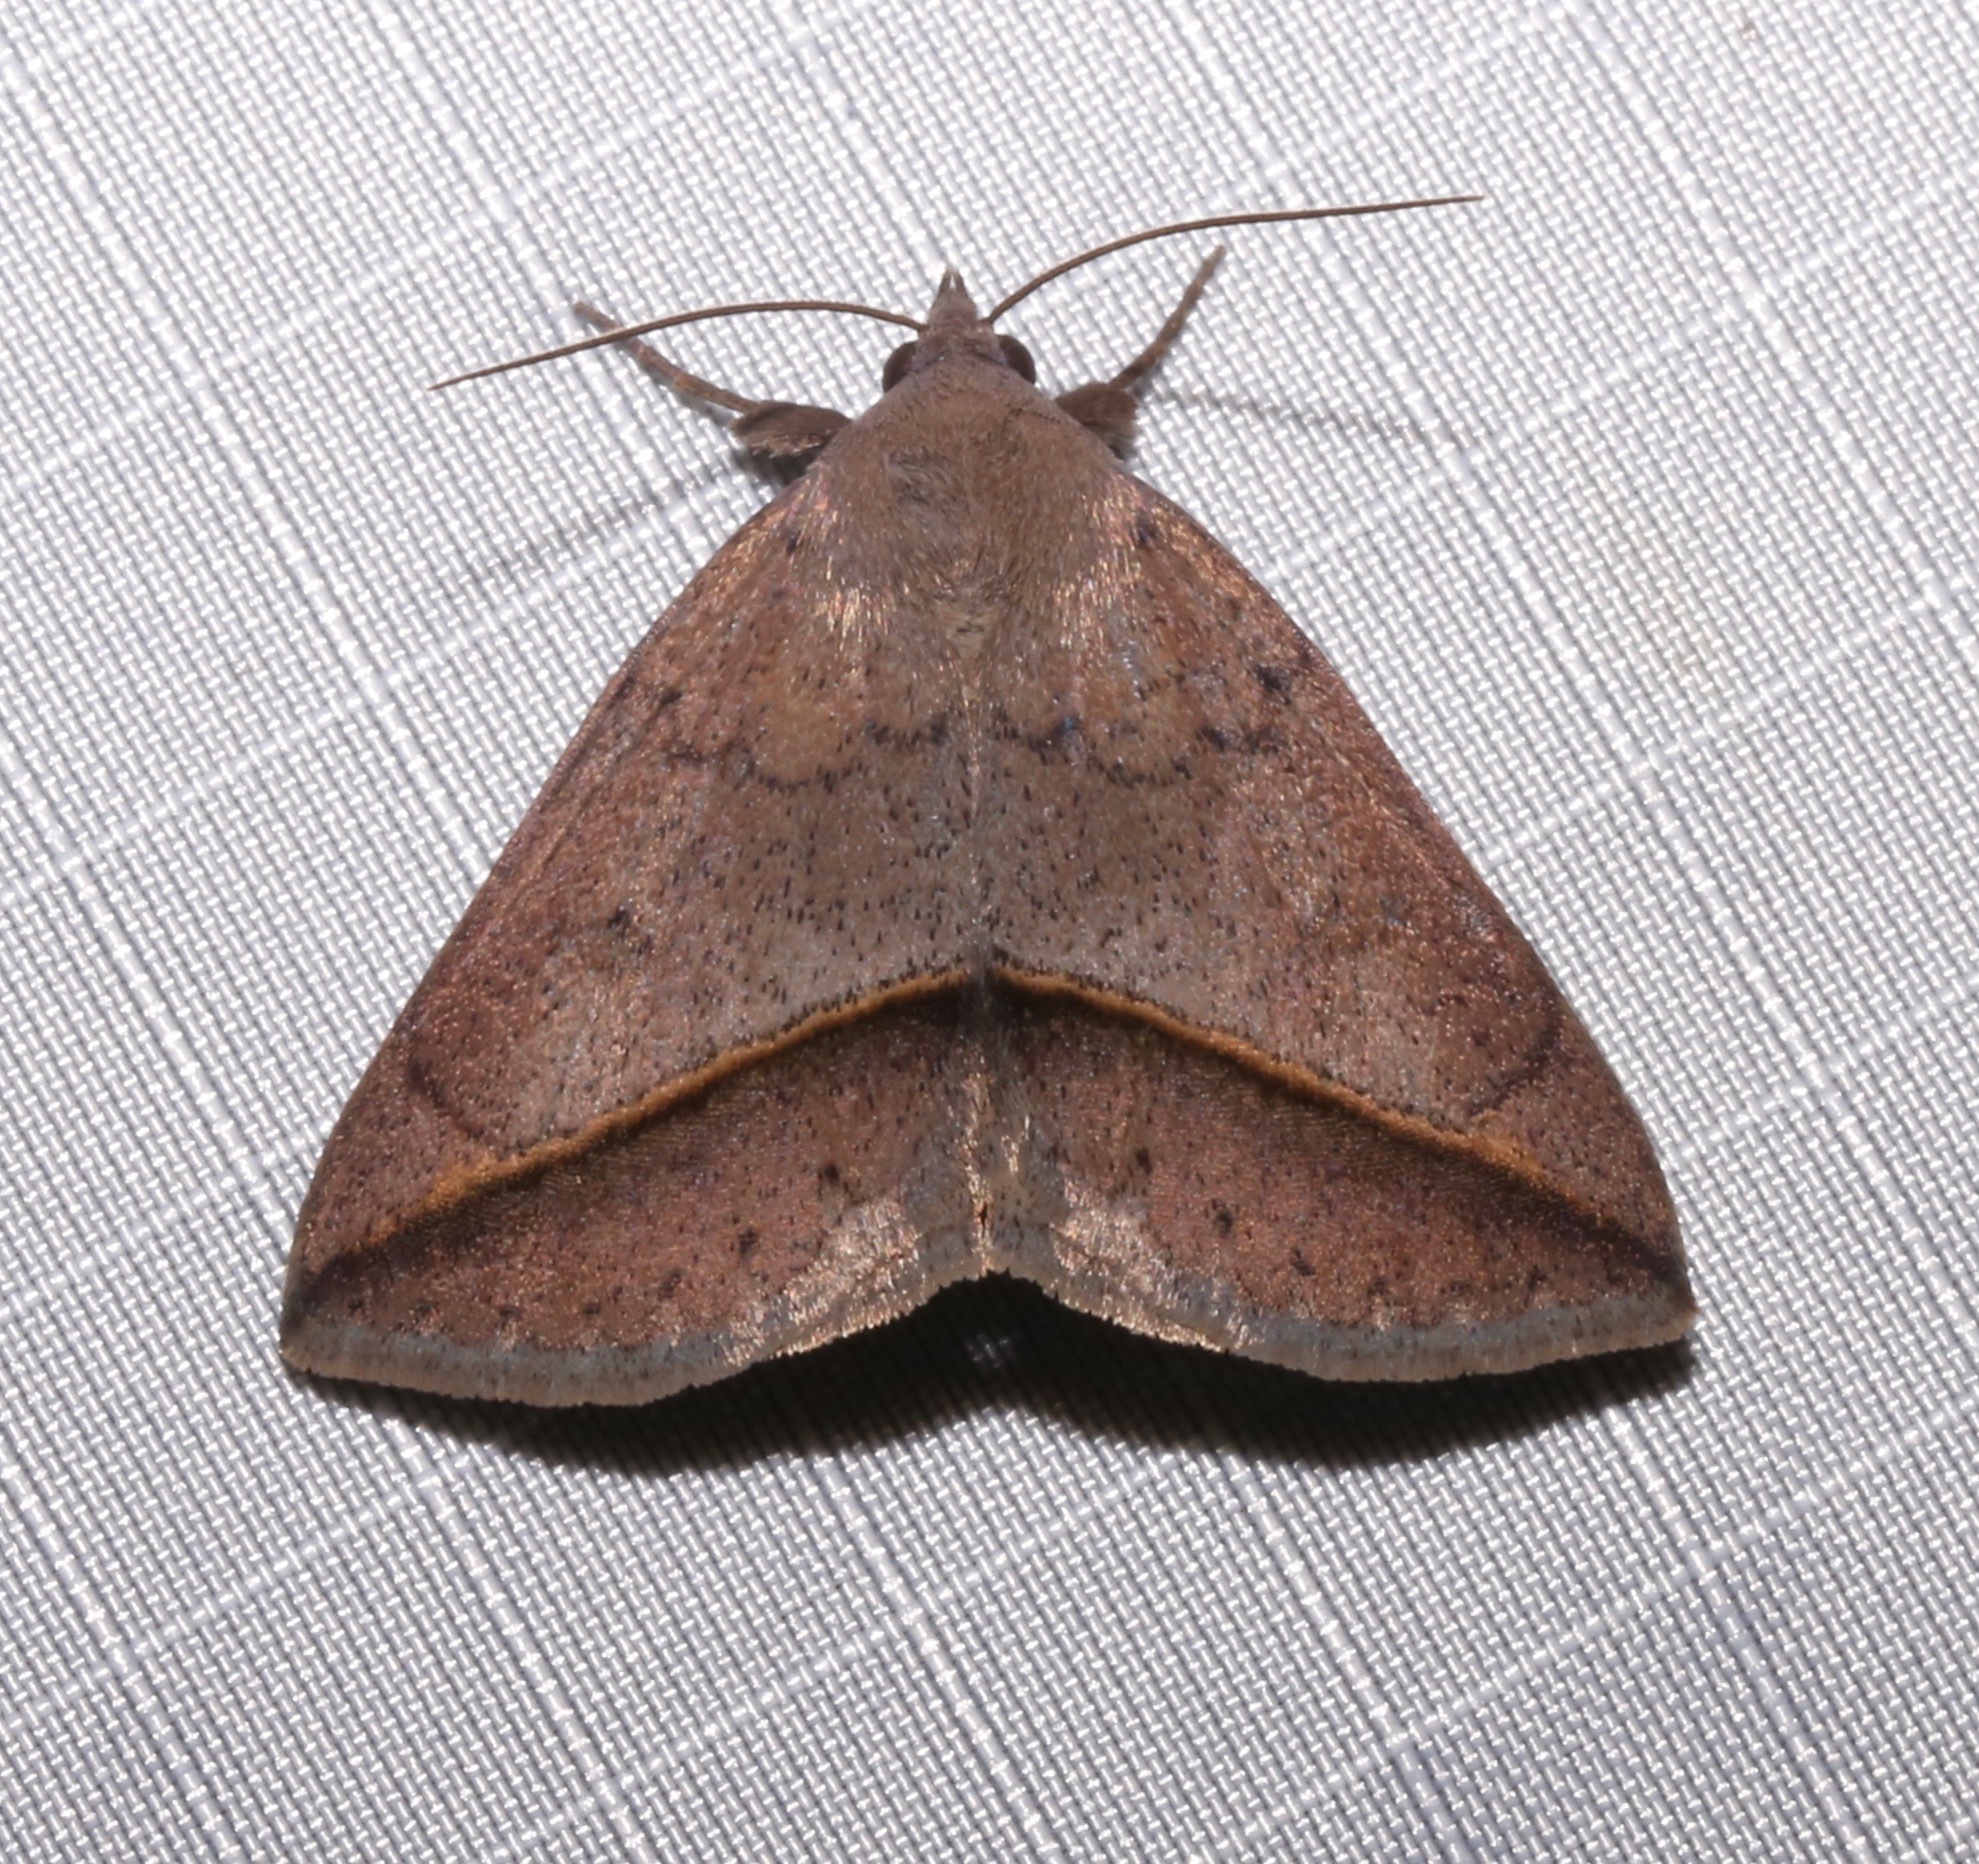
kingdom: Animalia
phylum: Arthropoda
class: Insecta
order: Lepidoptera
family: Erebidae
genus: Argyrostrotis
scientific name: Argyrostrotis flavistriaria
